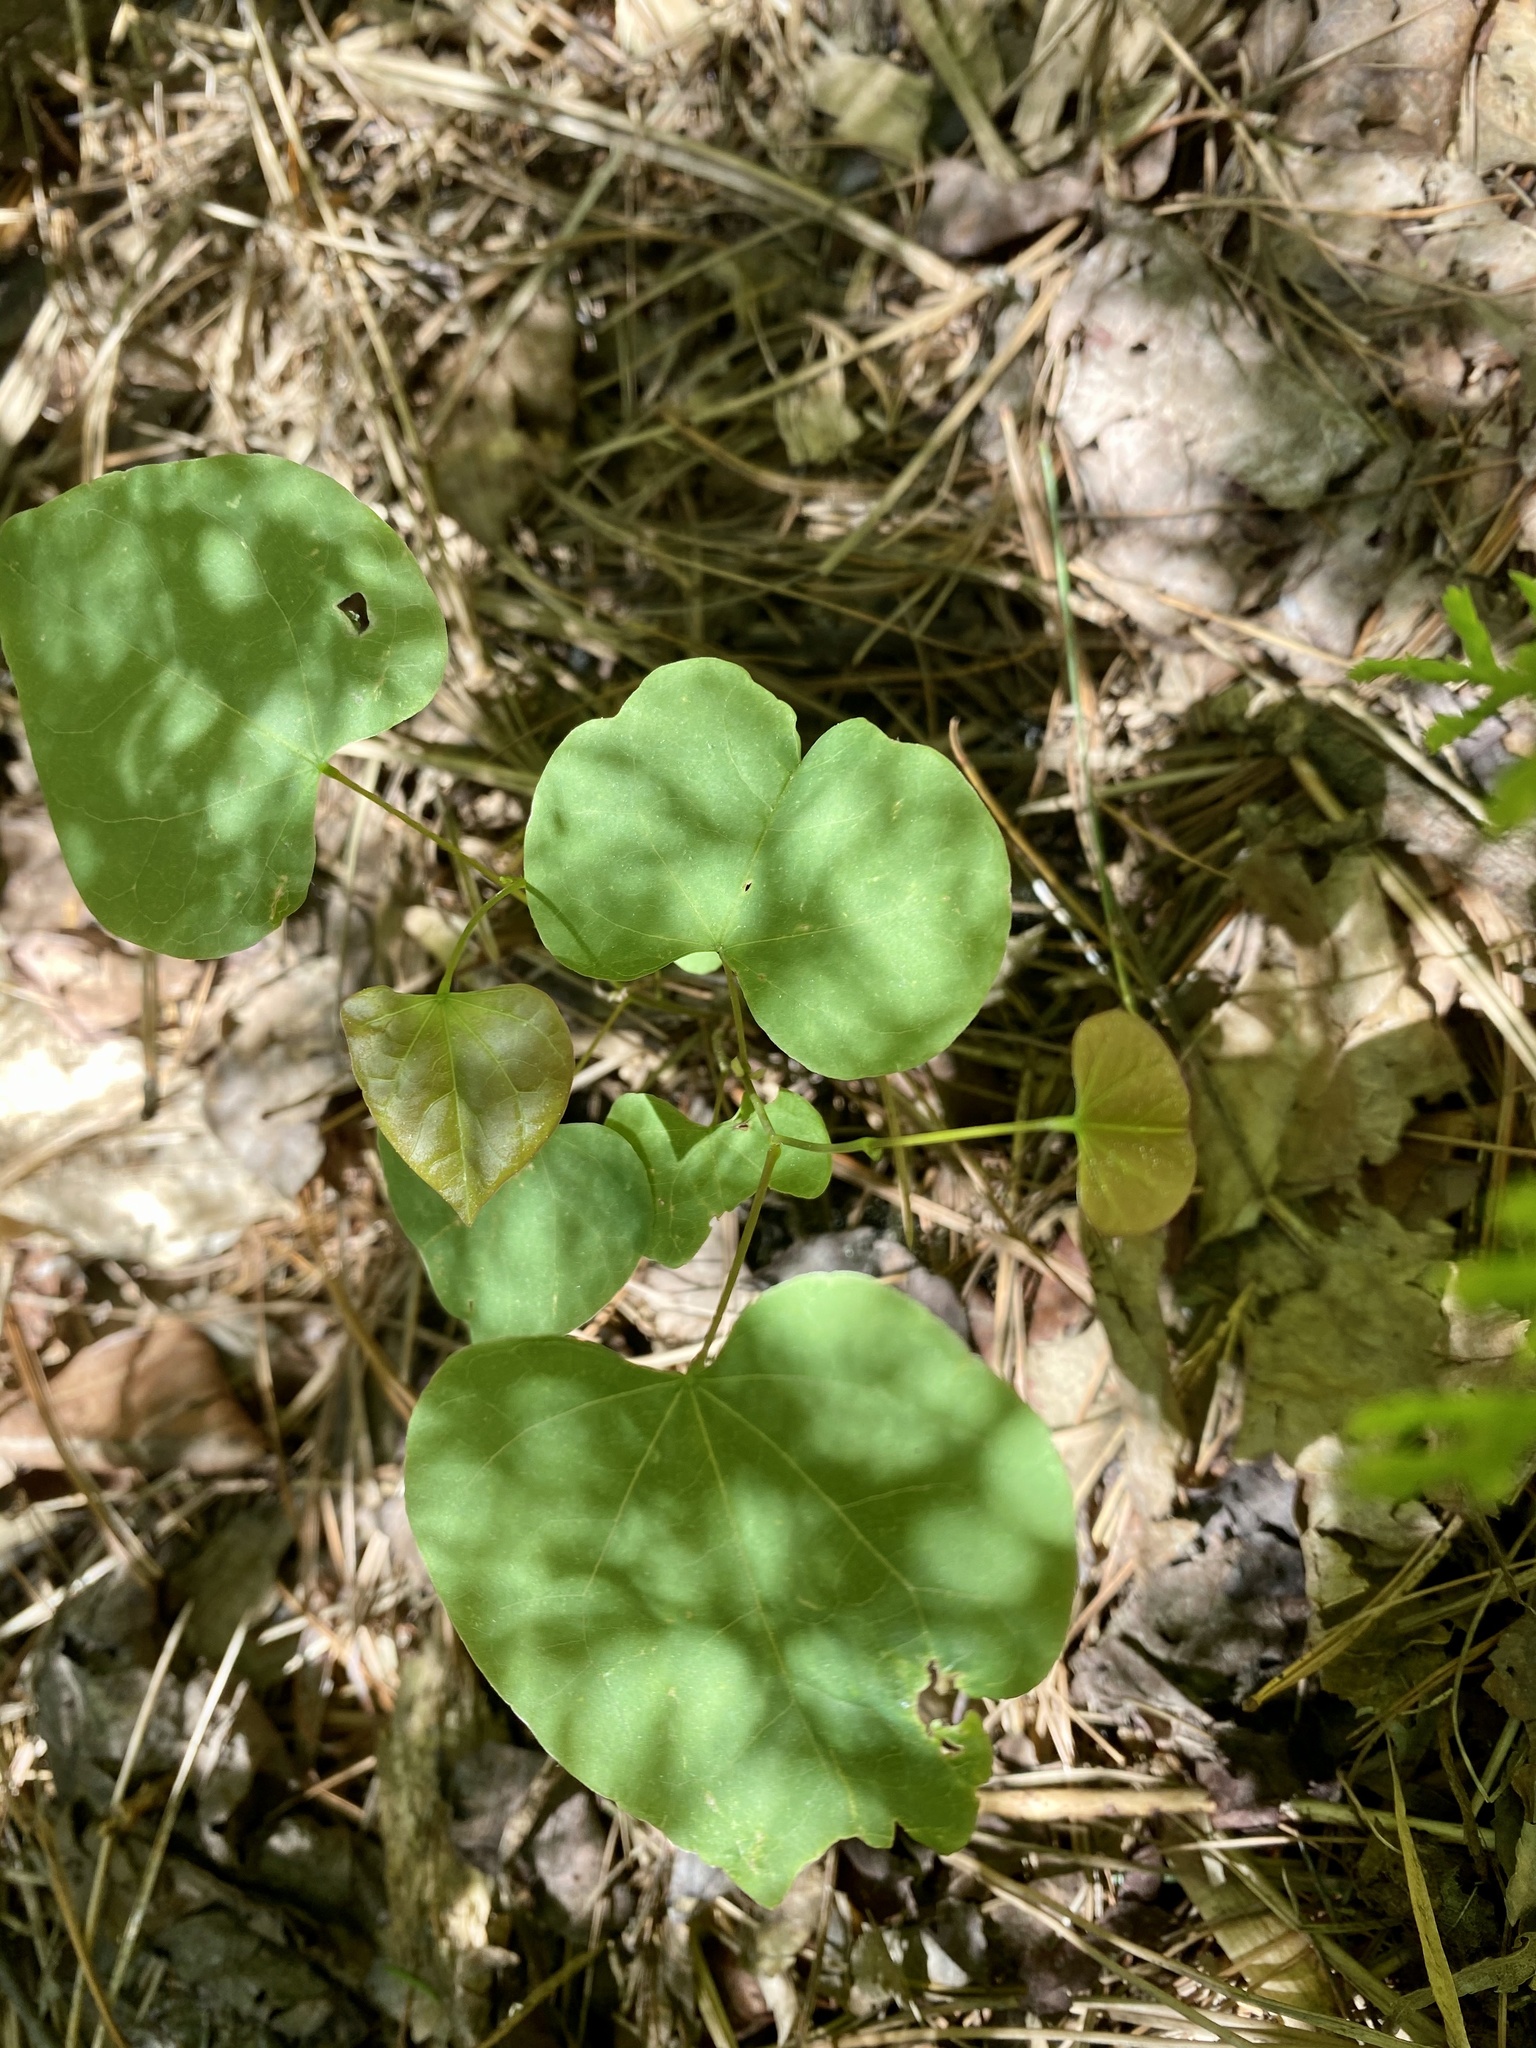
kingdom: Plantae
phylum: Tracheophyta
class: Magnoliopsida
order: Fabales
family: Fabaceae
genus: Cercis
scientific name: Cercis canadensis
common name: Eastern redbud
